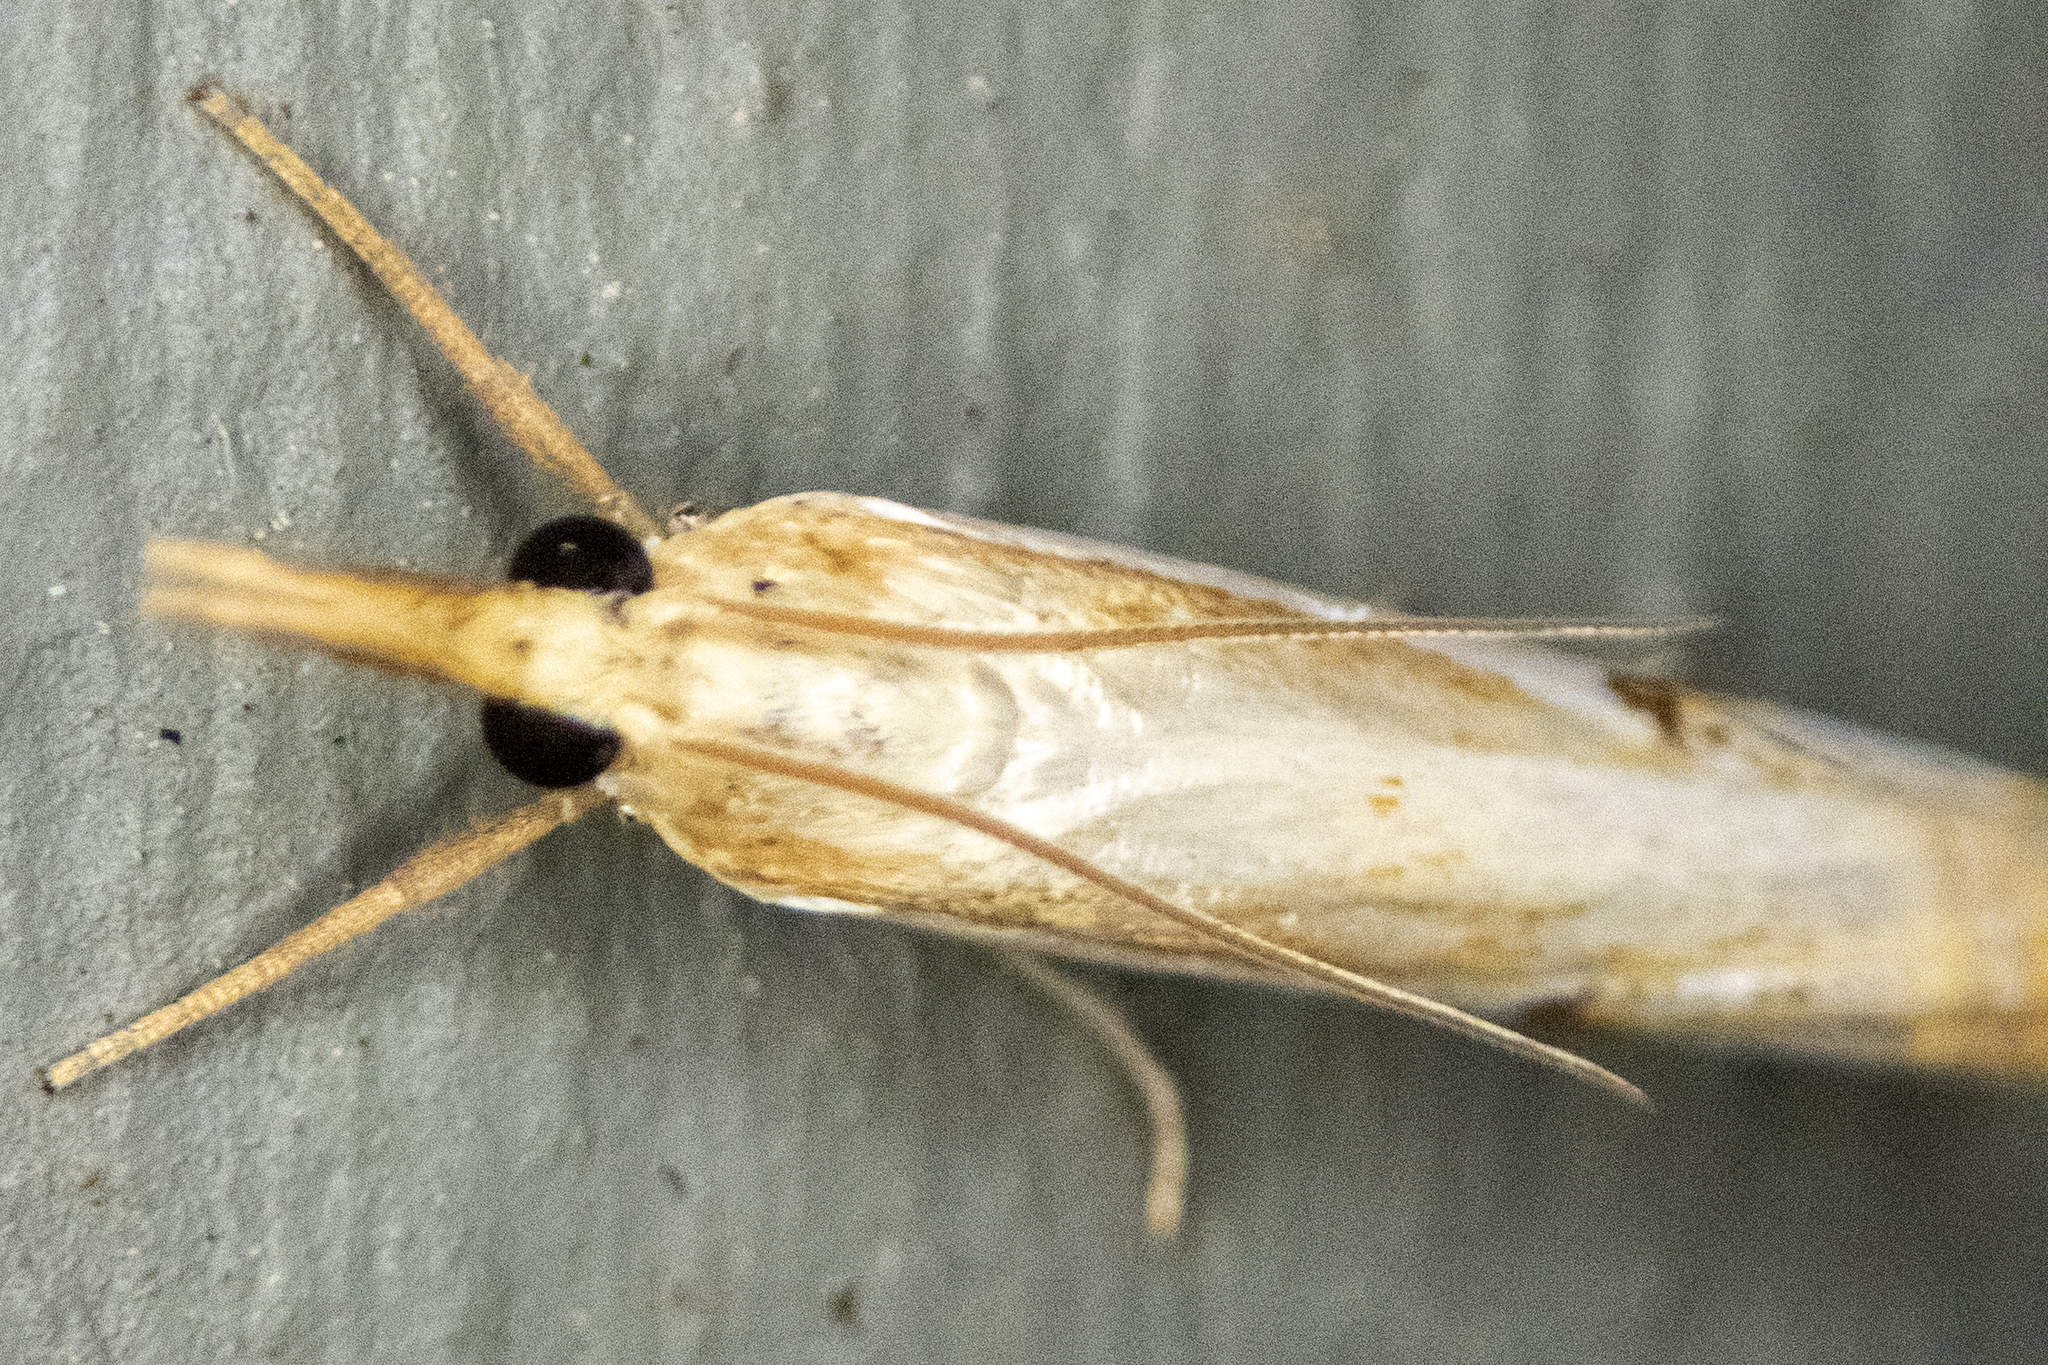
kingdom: Animalia
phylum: Arthropoda
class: Insecta
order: Lepidoptera
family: Crambidae
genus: Crambus
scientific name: Crambus agitatellus
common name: Double-banded grass-veneer
